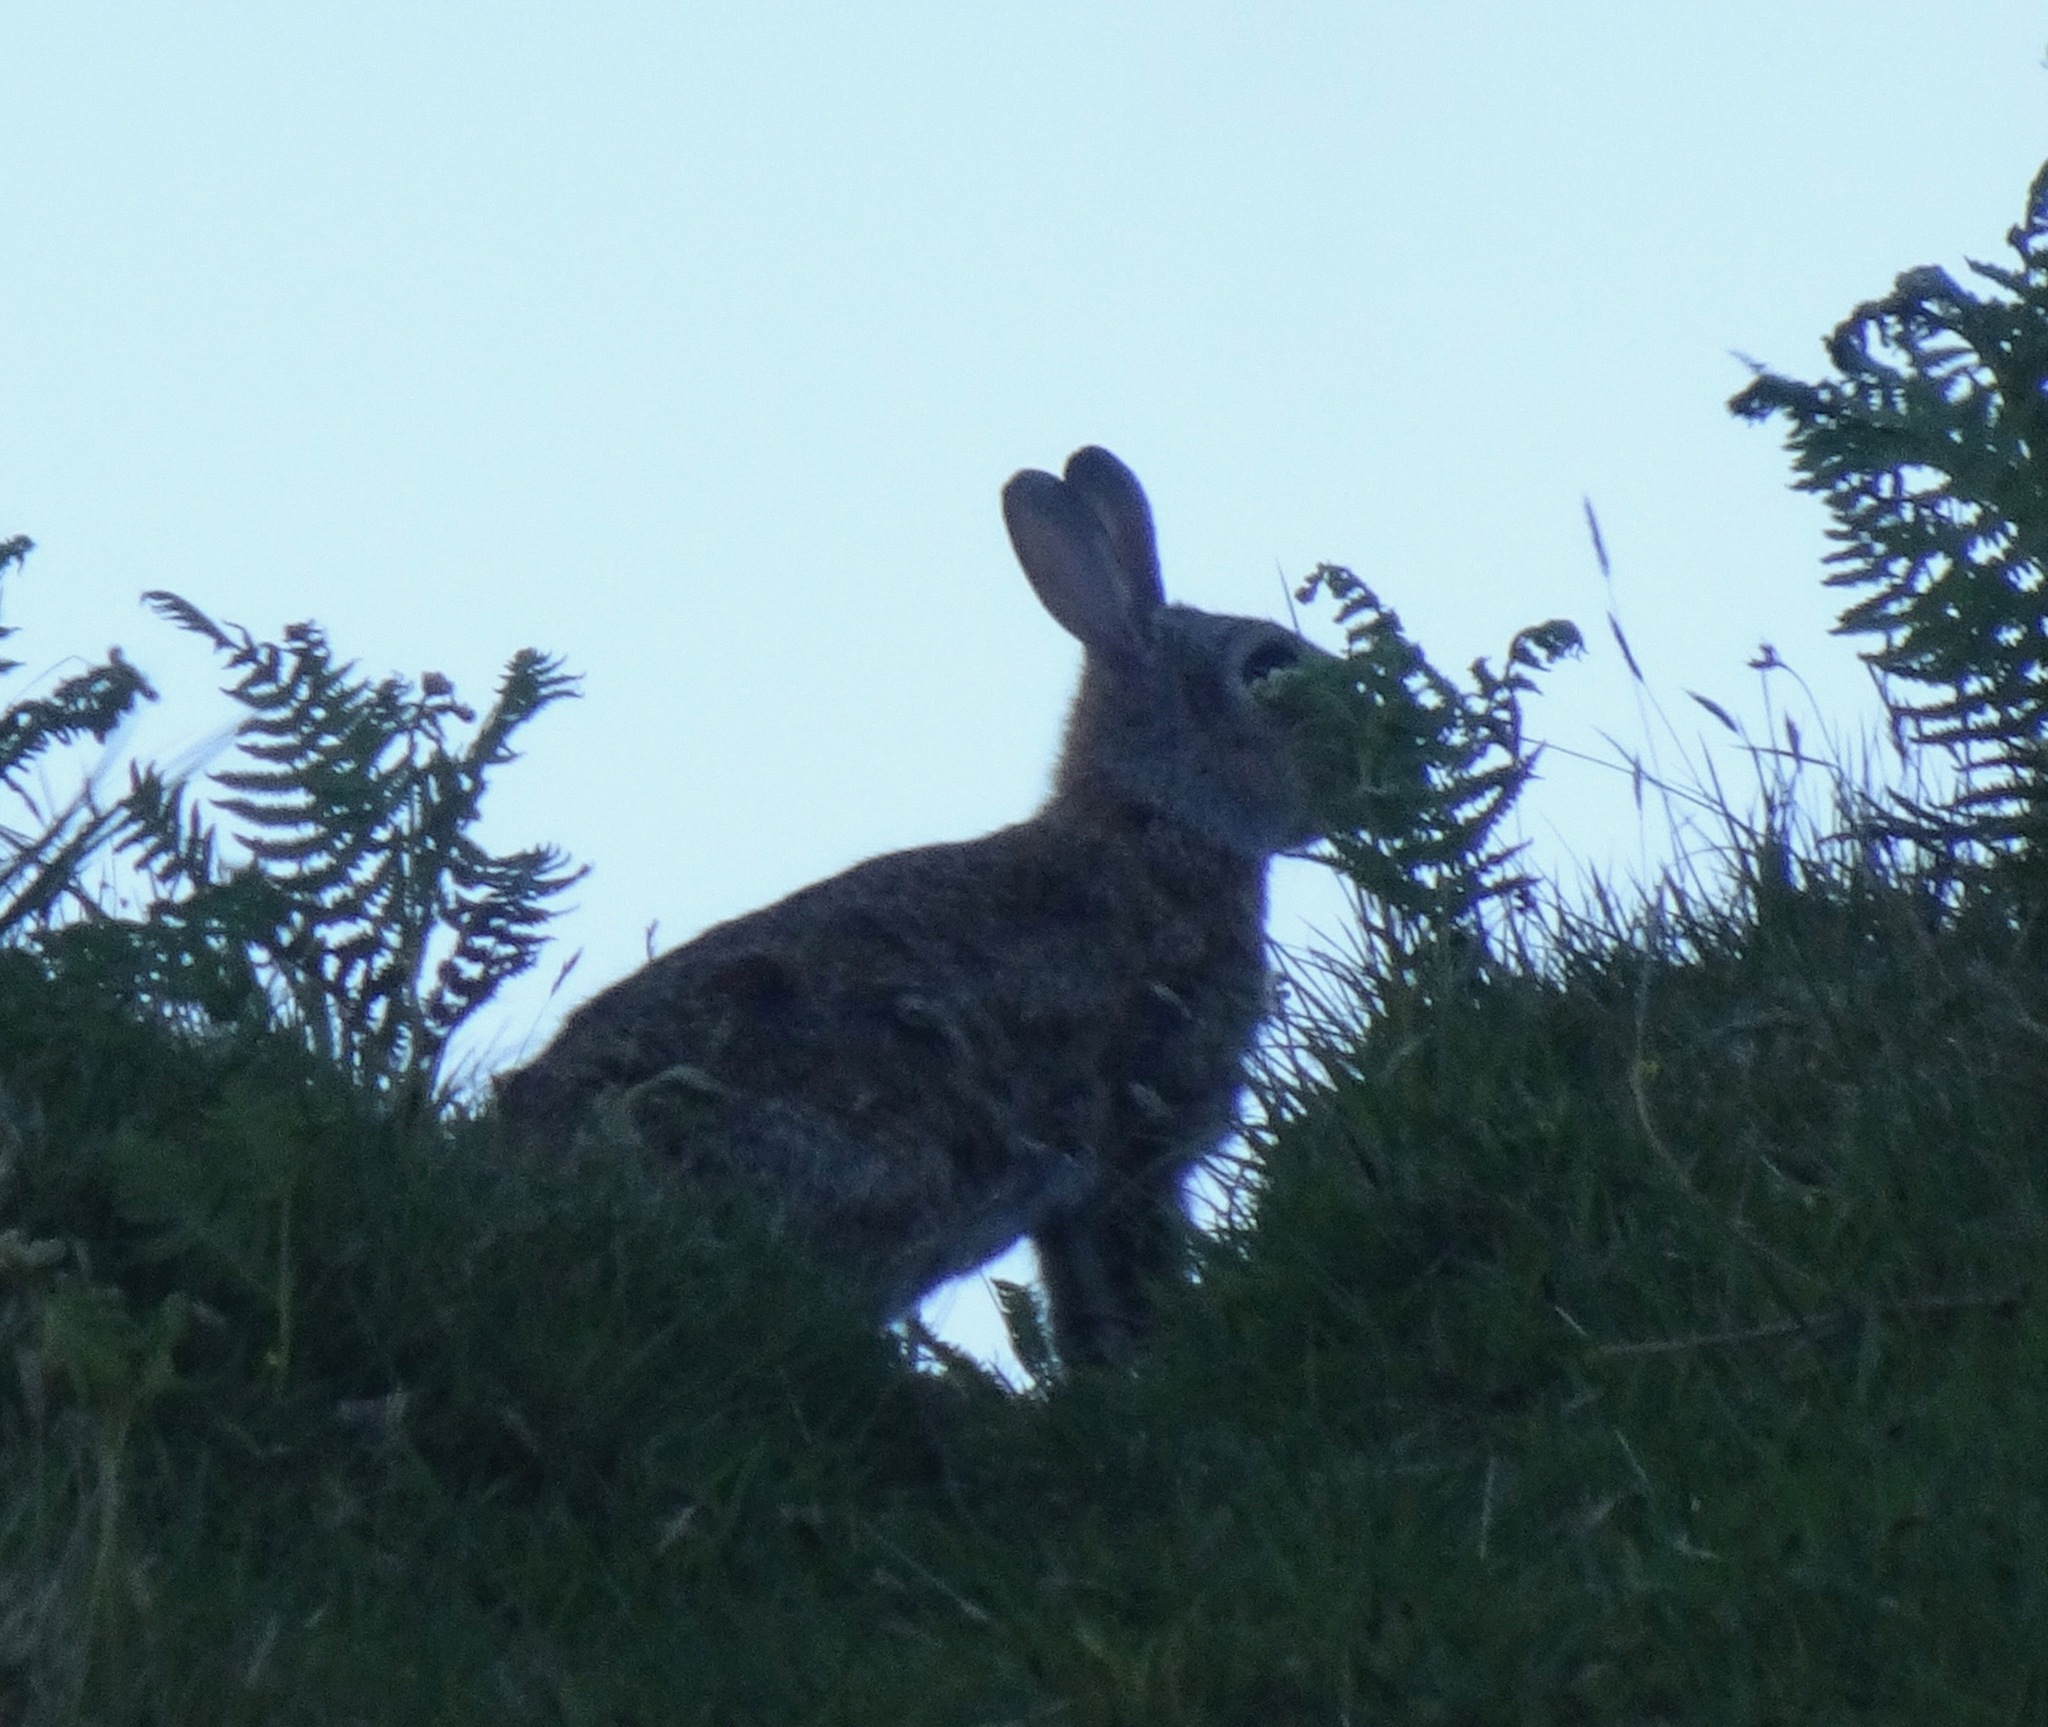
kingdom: Animalia
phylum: Chordata
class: Mammalia
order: Lagomorpha
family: Leporidae
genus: Oryctolagus
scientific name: Oryctolagus cuniculus
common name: European rabbit
